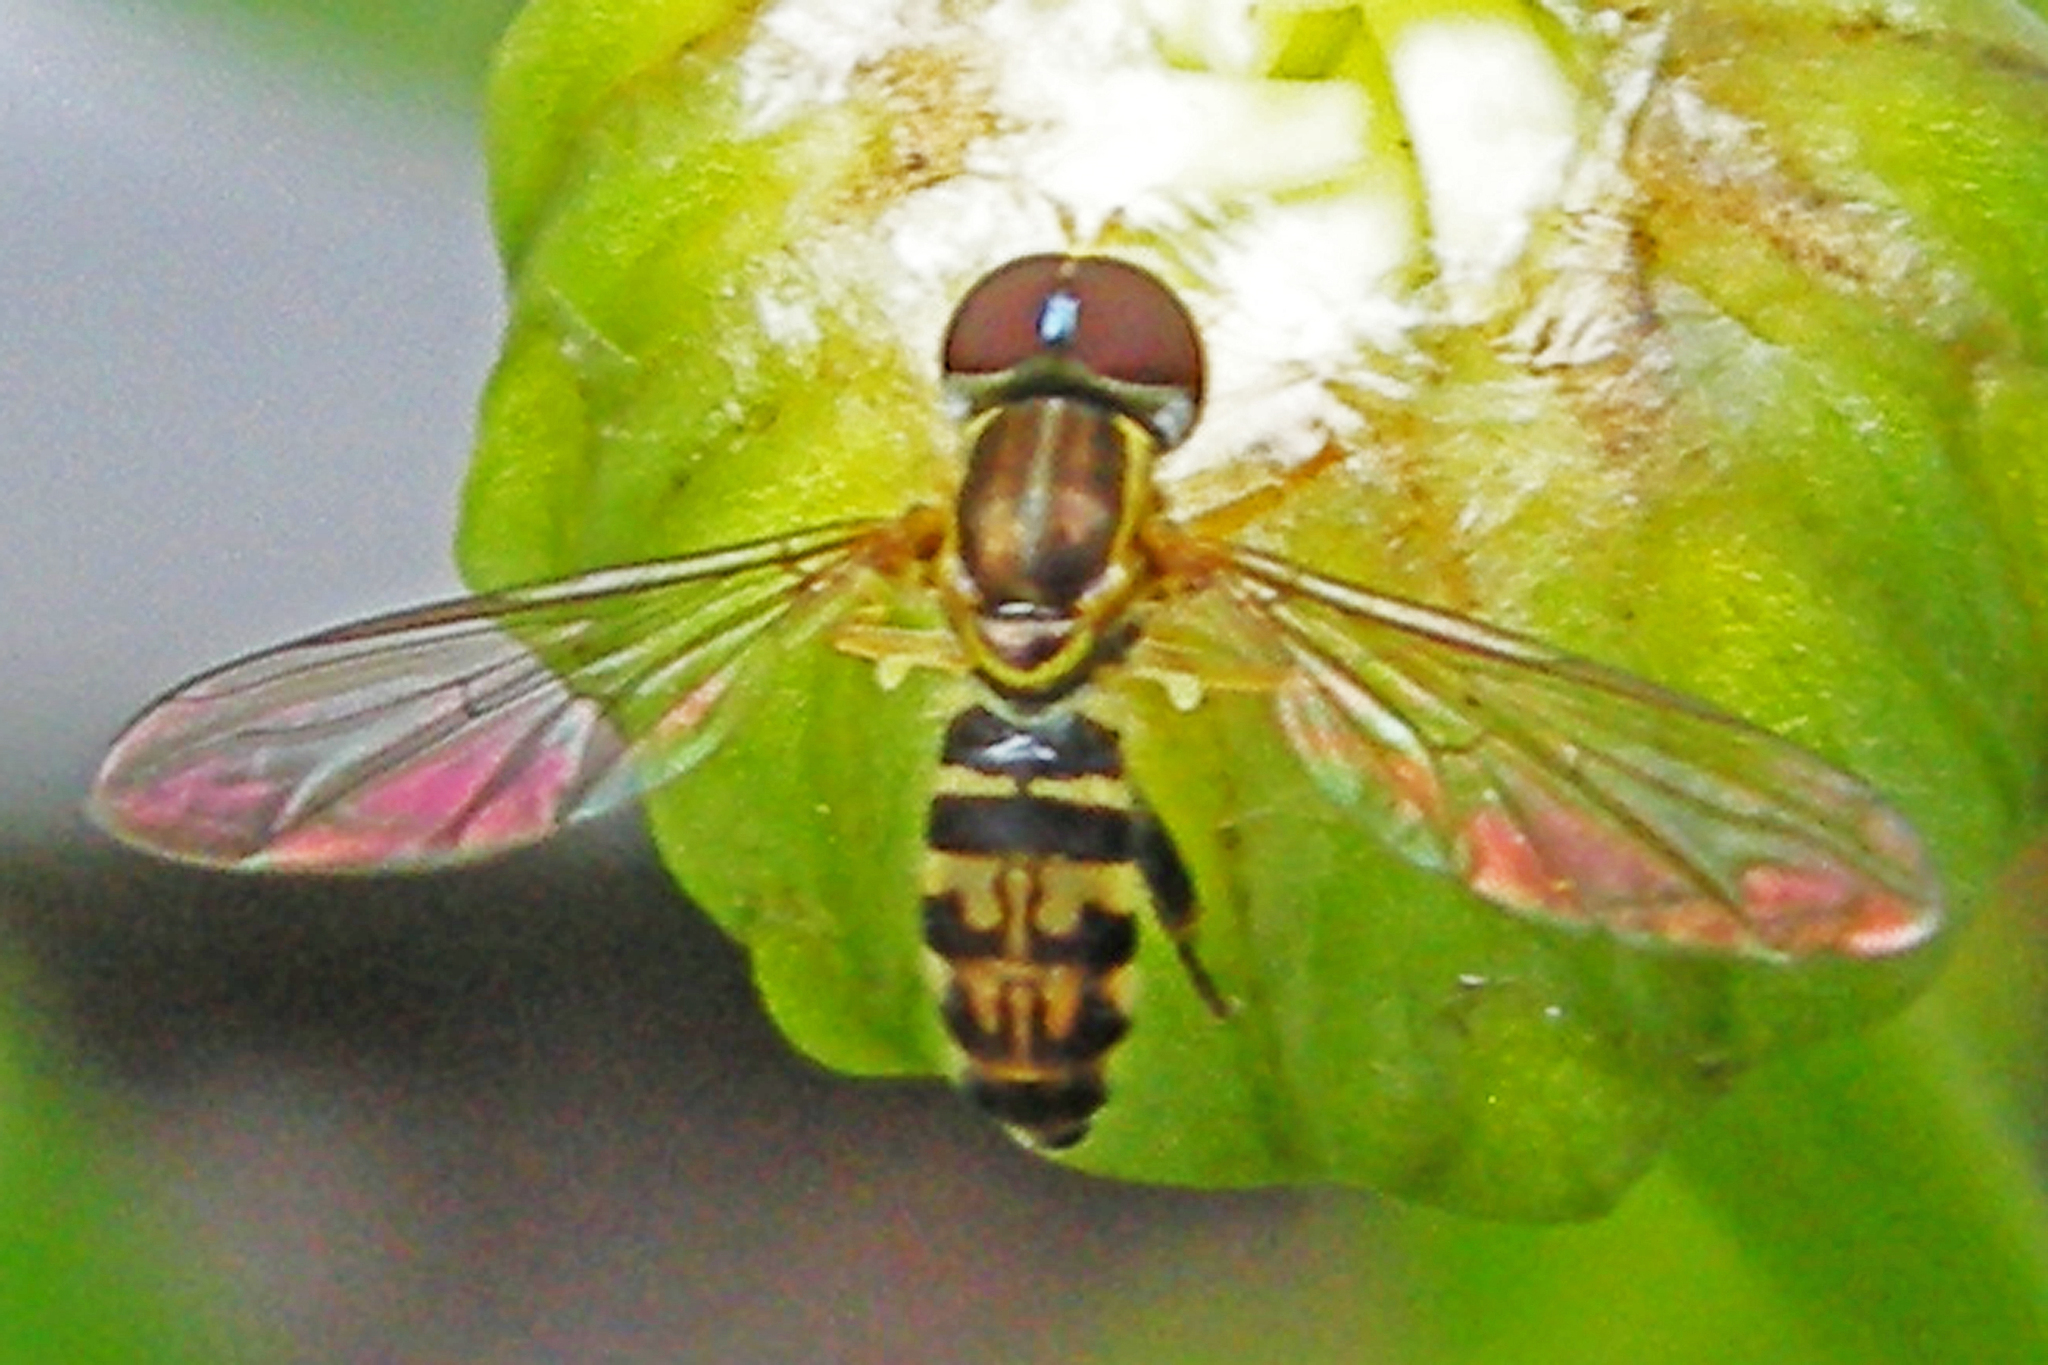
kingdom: Animalia
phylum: Arthropoda
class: Insecta
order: Diptera
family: Syrphidae
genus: Toxomerus
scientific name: Toxomerus geminatus
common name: Eastern calligrapher
